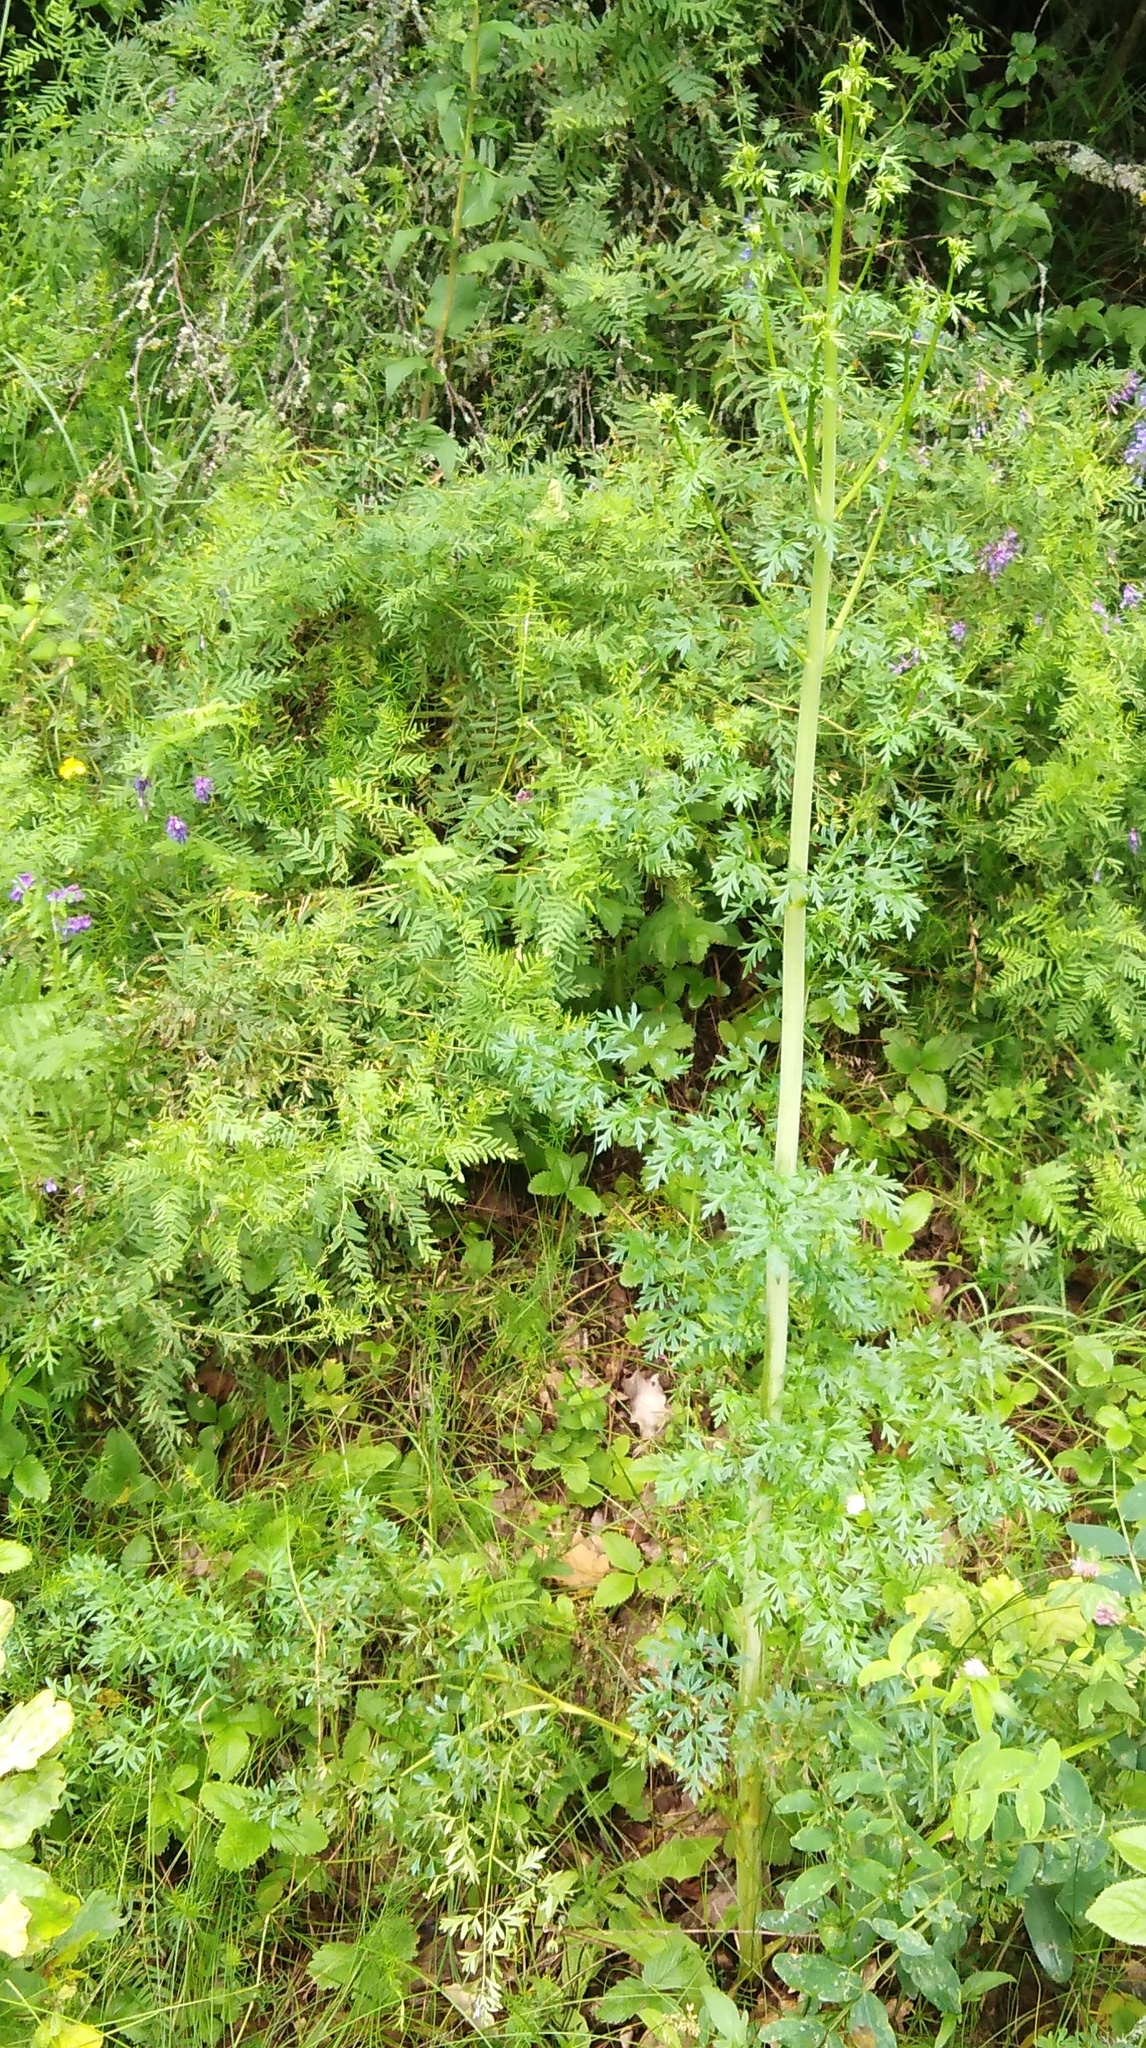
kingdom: Plantae
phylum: Tracheophyta
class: Magnoliopsida
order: Apiales
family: Apiaceae
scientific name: Apiaceae
